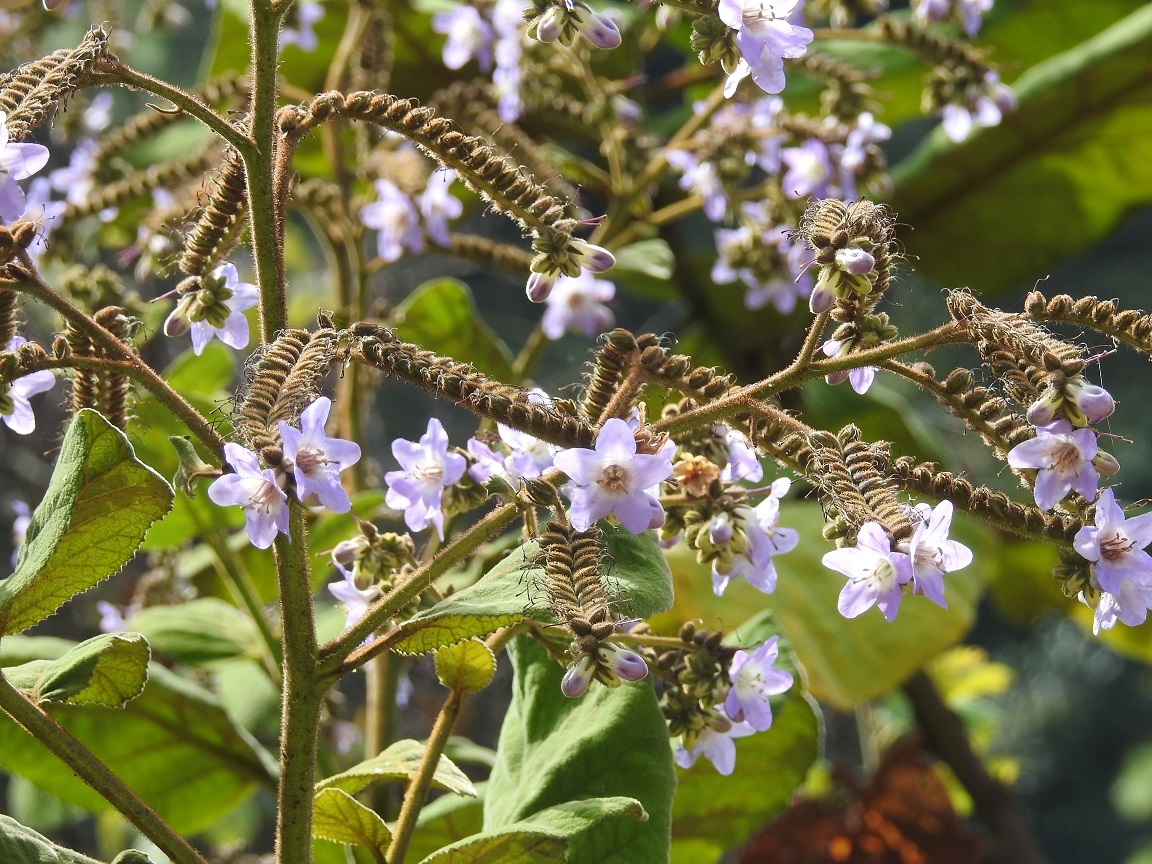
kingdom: Plantae
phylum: Tracheophyta
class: Magnoliopsida
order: Boraginales
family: Namaceae
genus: Wigandia
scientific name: Wigandia urens
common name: Caracus wigandia
